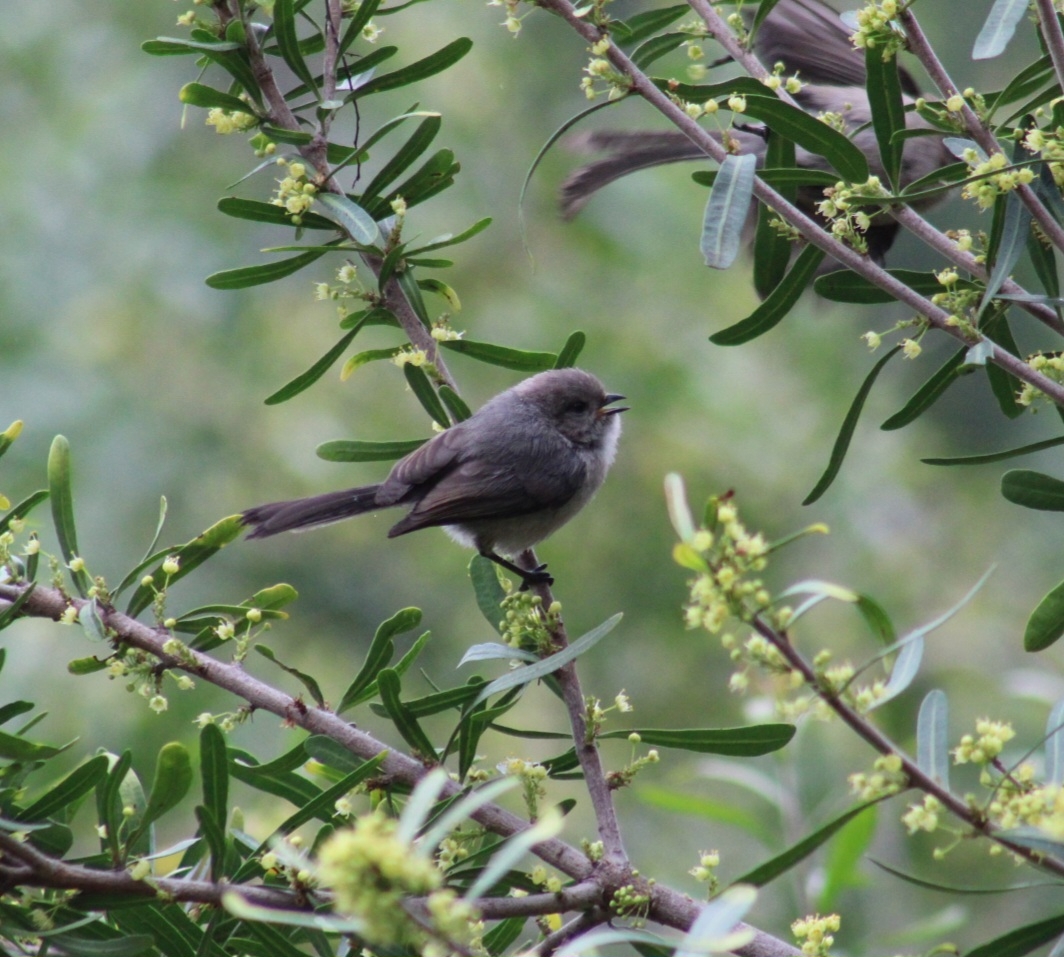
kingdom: Animalia
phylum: Chordata
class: Aves
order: Passeriformes
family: Aegithalidae
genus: Psaltriparus
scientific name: Psaltriparus minimus
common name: American bushtit
